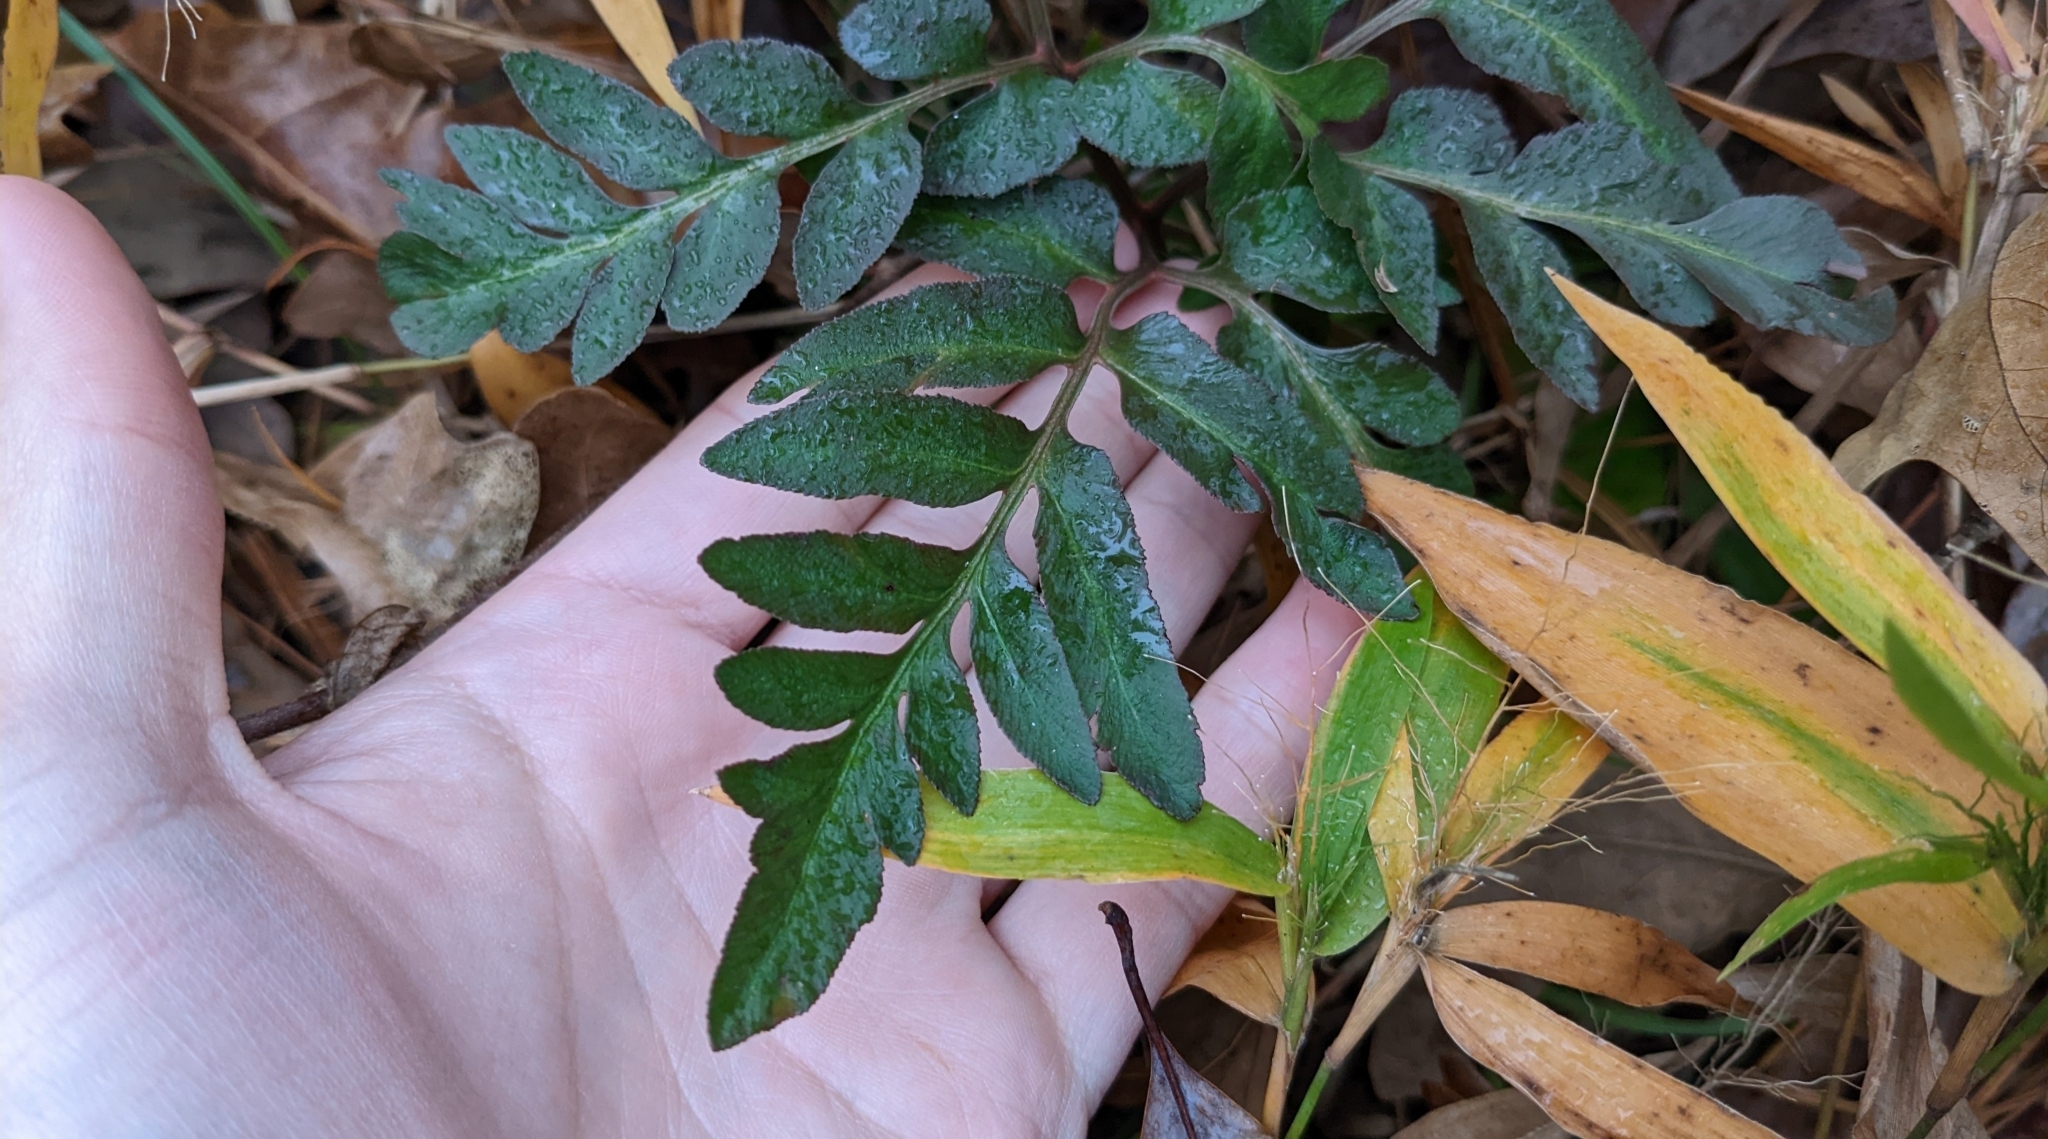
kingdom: Plantae
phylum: Tracheophyta
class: Polypodiopsida
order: Ophioglossales
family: Ophioglossaceae
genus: Sceptridium
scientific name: Sceptridium biternatum
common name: Sparse-lobed grapefern
